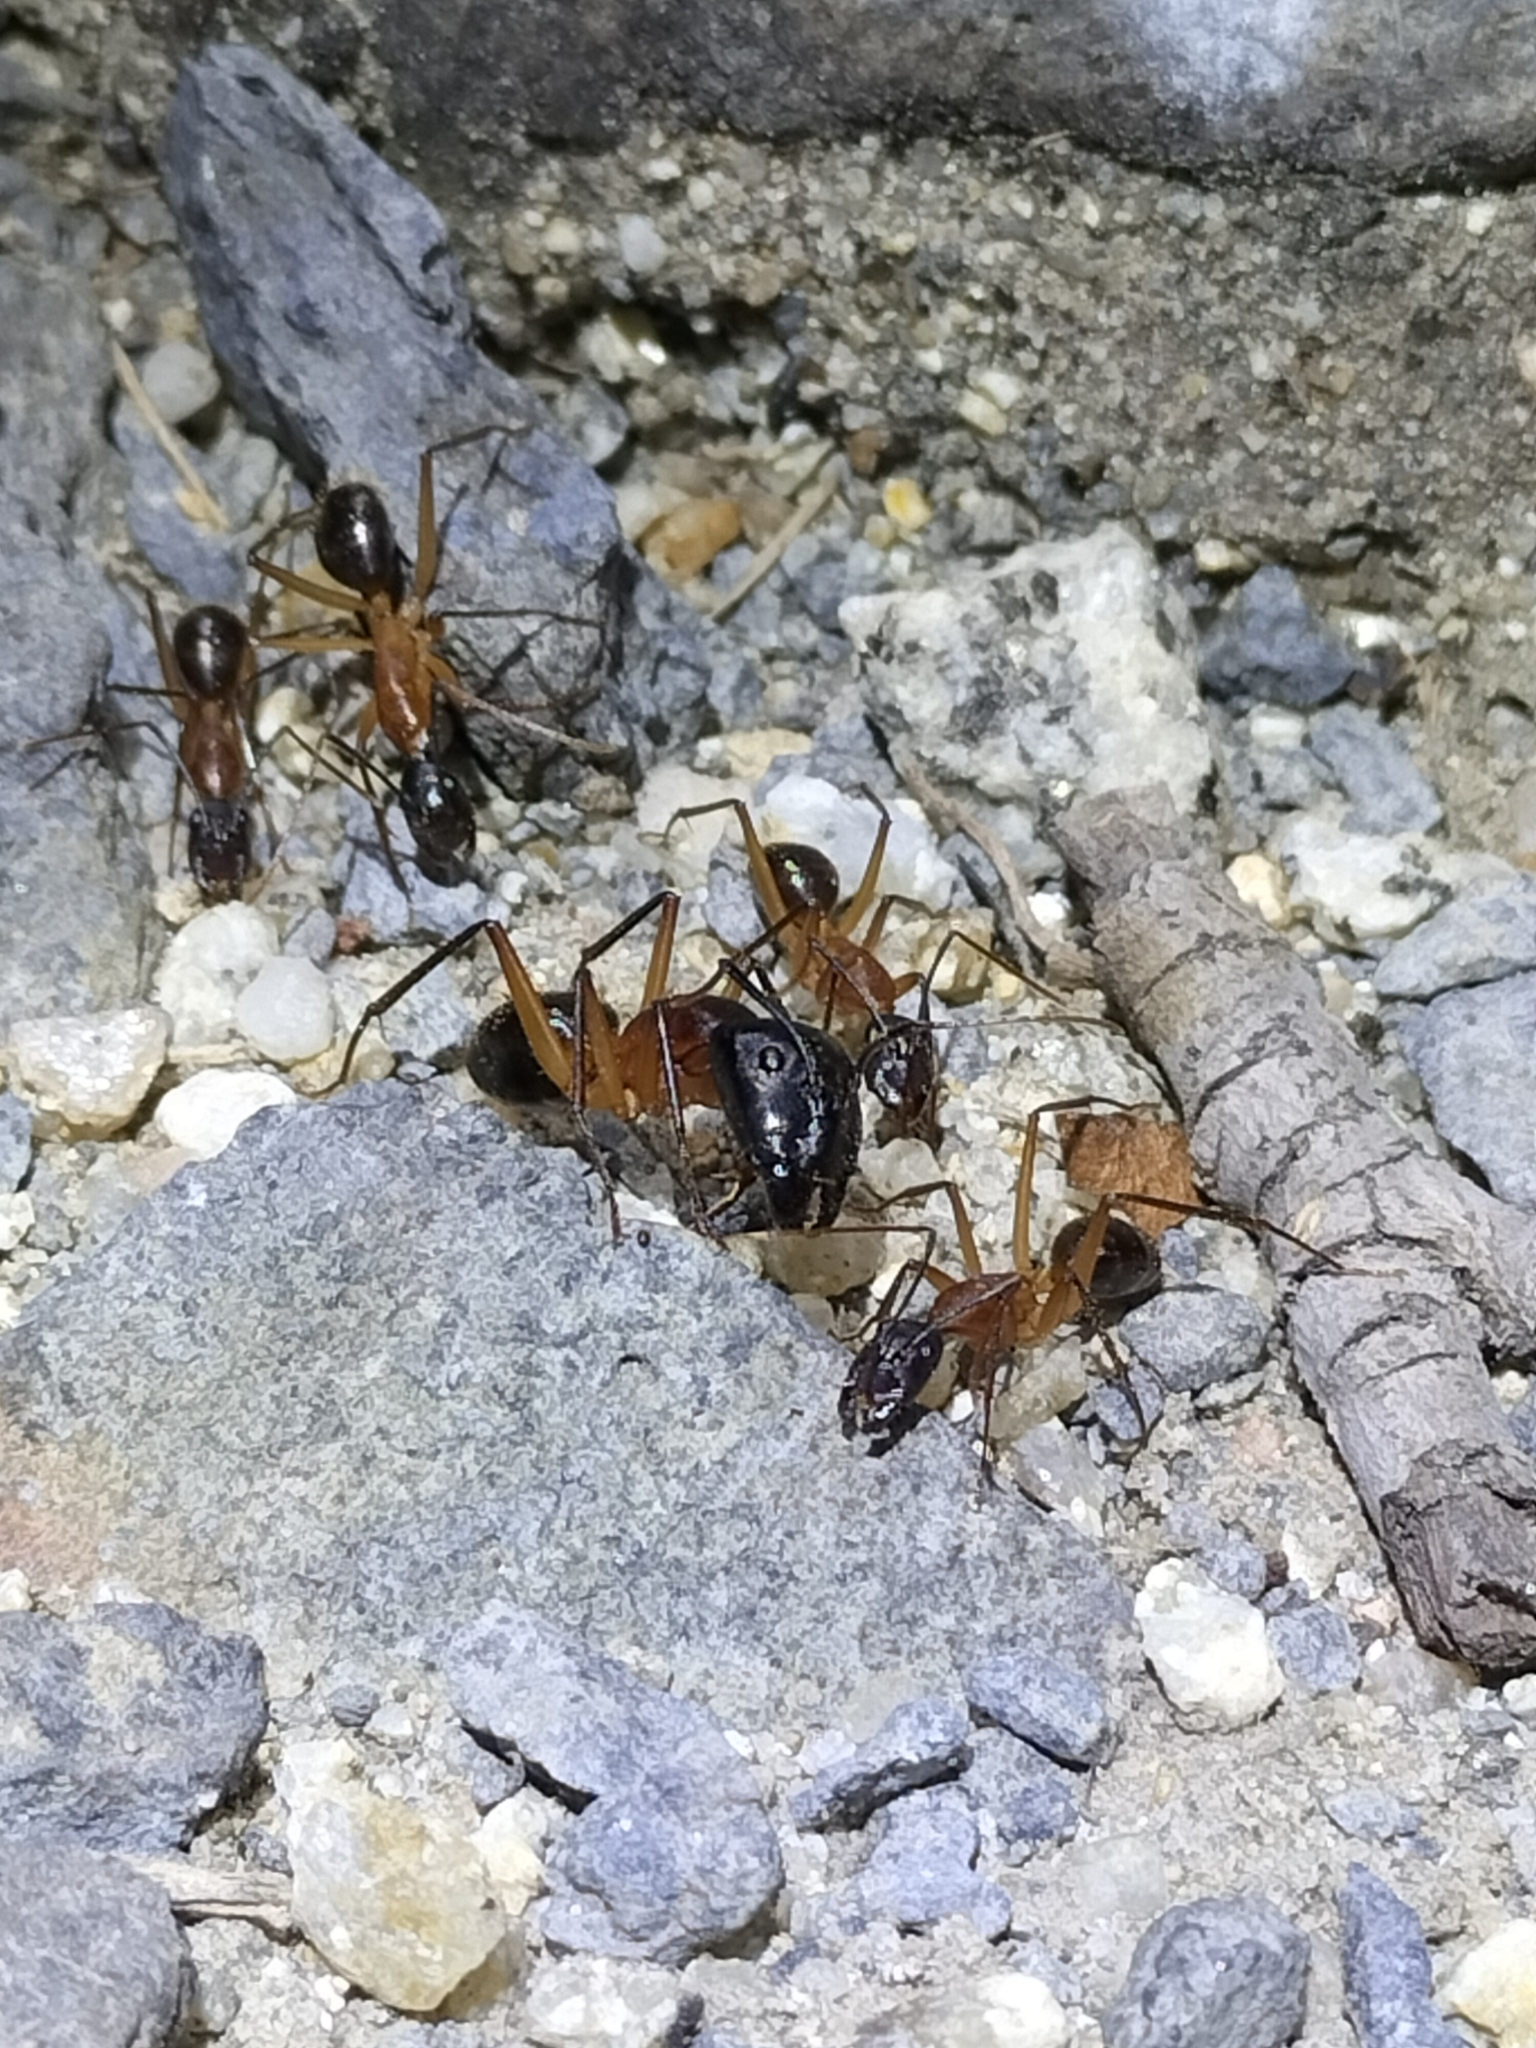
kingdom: Animalia
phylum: Arthropoda
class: Insecta
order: Hymenoptera
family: Formicidae
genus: Camponotus
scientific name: Camponotus
